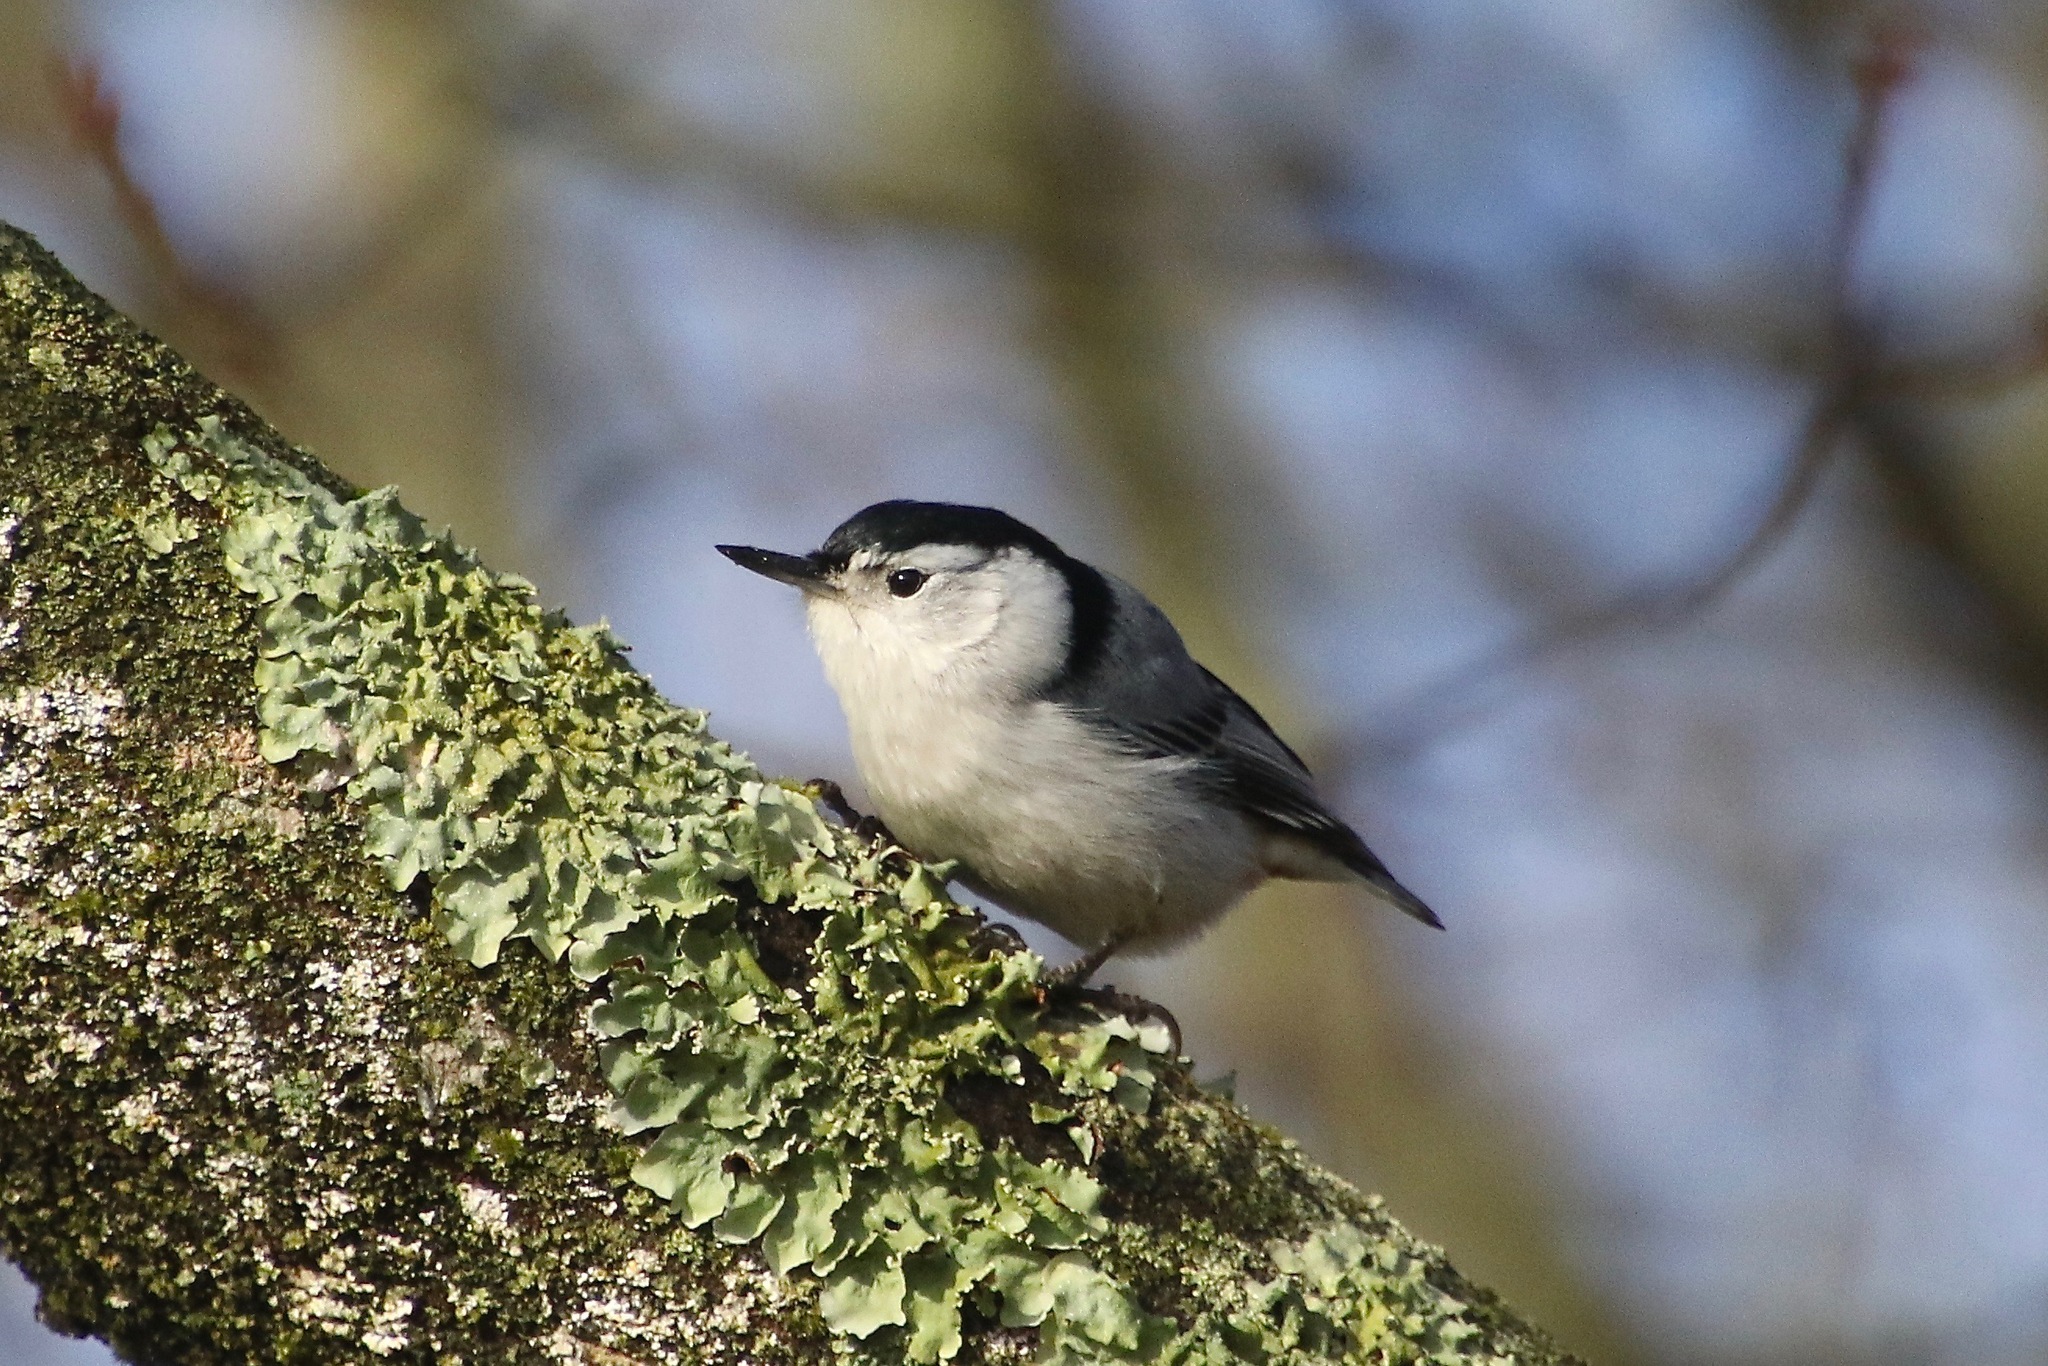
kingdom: Animalia
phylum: Chordata
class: Aves
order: Passeriformes
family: Sittidae
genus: Sitta
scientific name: Sitta carolinensis
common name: White-breasted nuthatch
